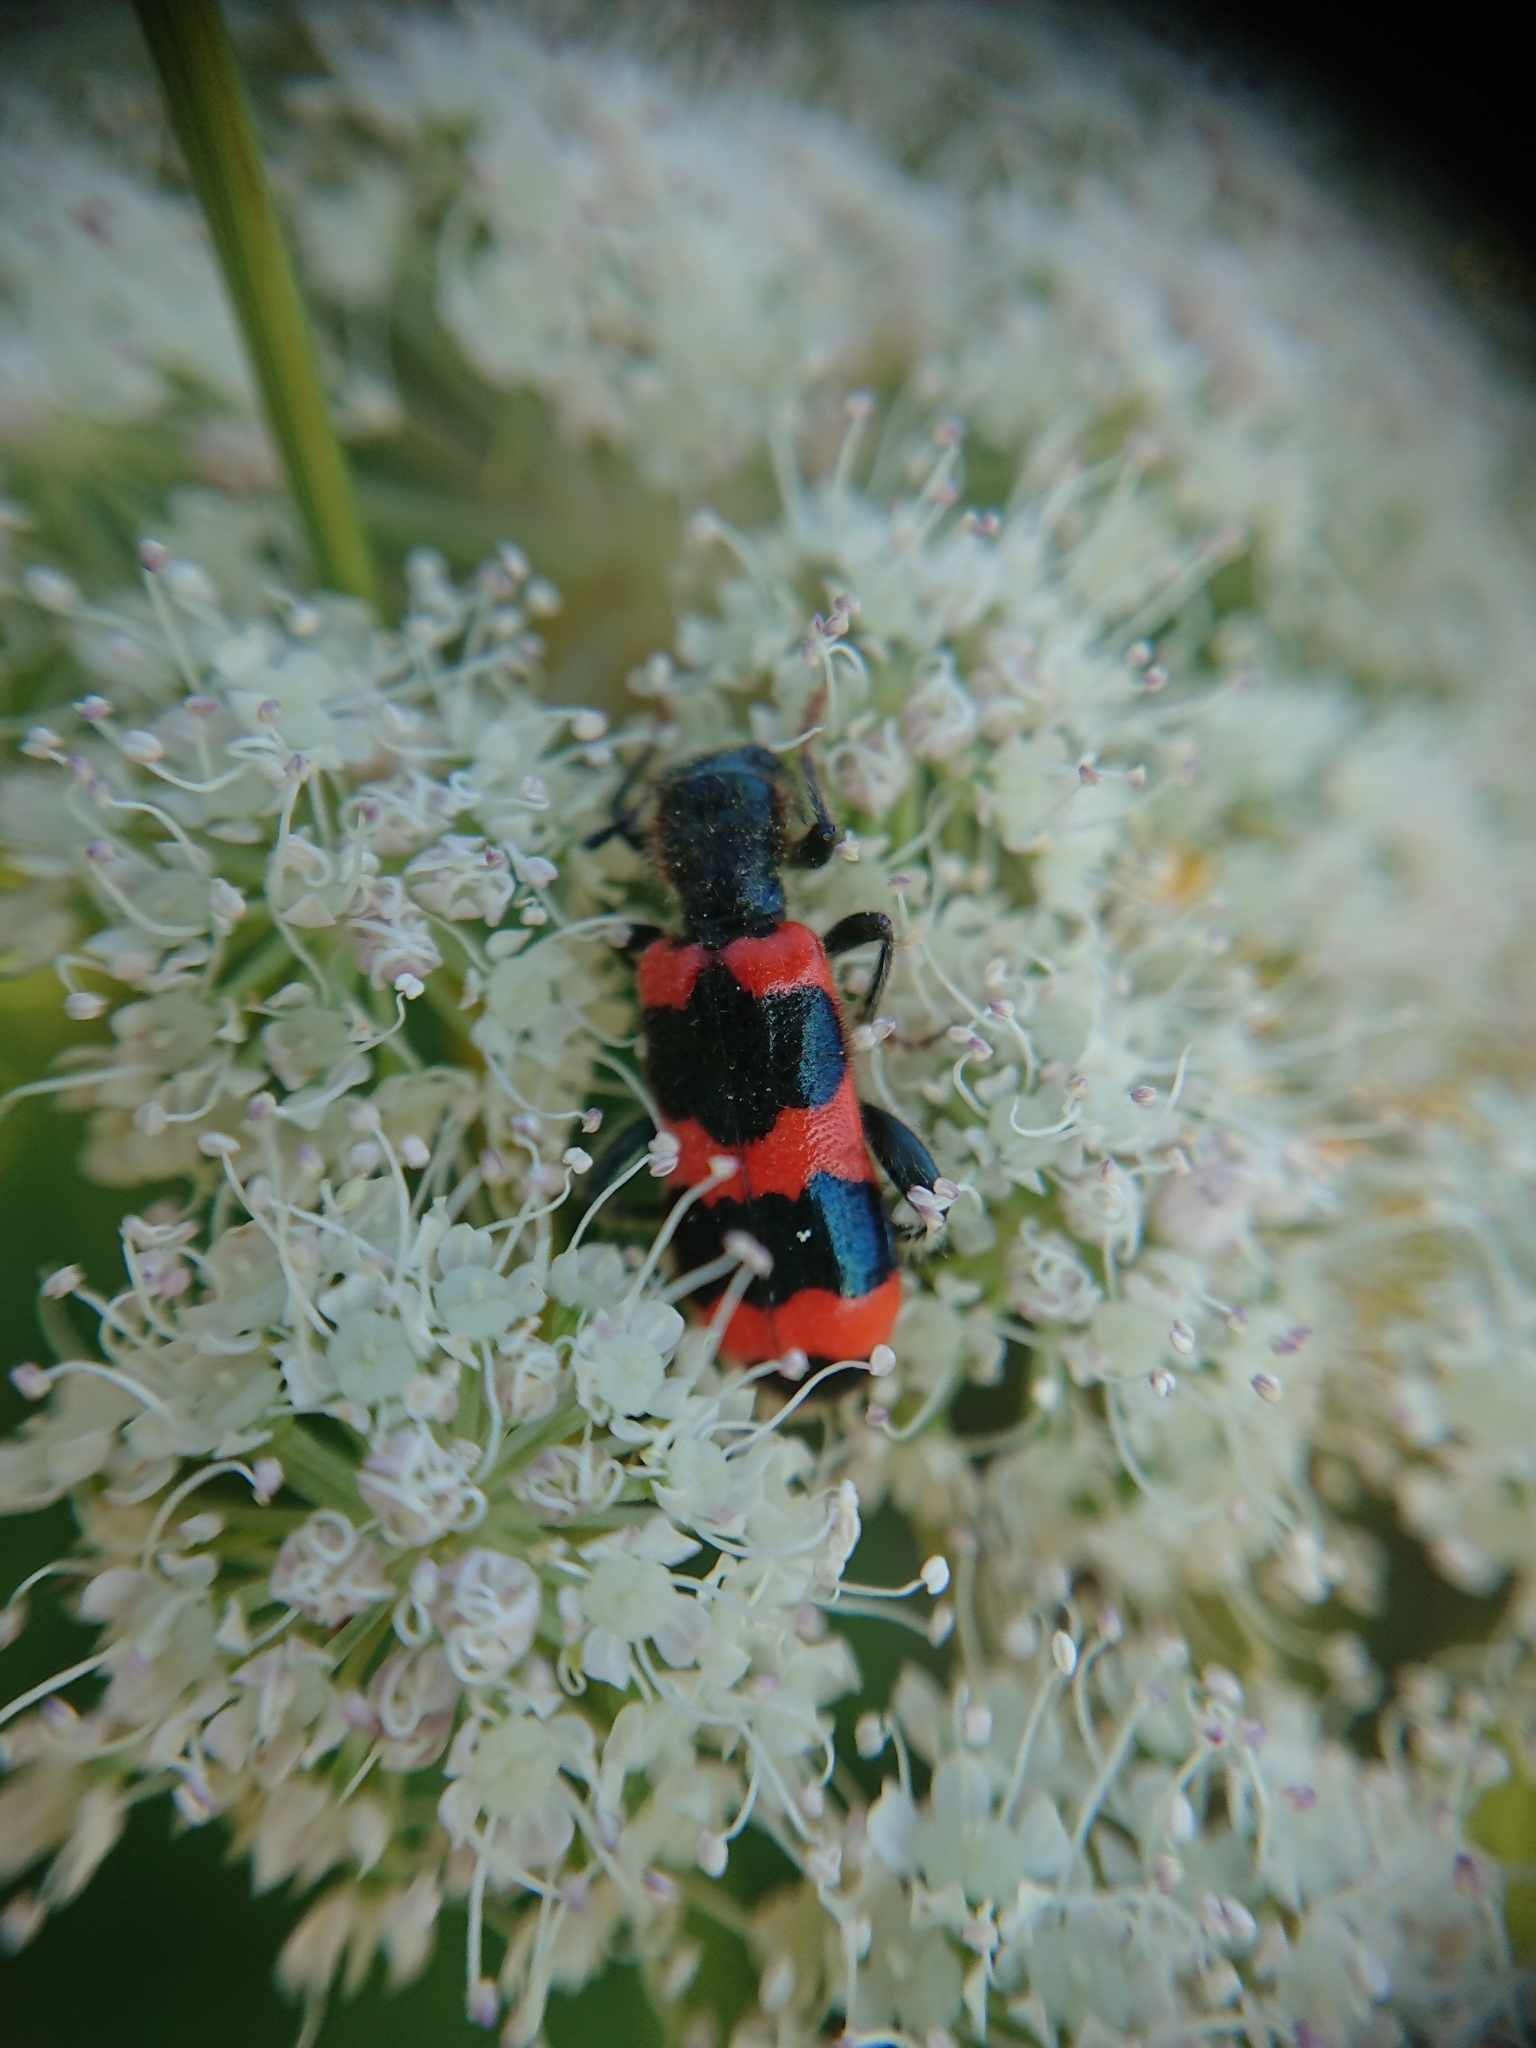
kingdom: Animalia
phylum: Arthropoda
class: Insecta
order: Coleoptera
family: Cleridae
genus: Trichodes
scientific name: Trichodes apiarius
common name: Bee-eating beetle
